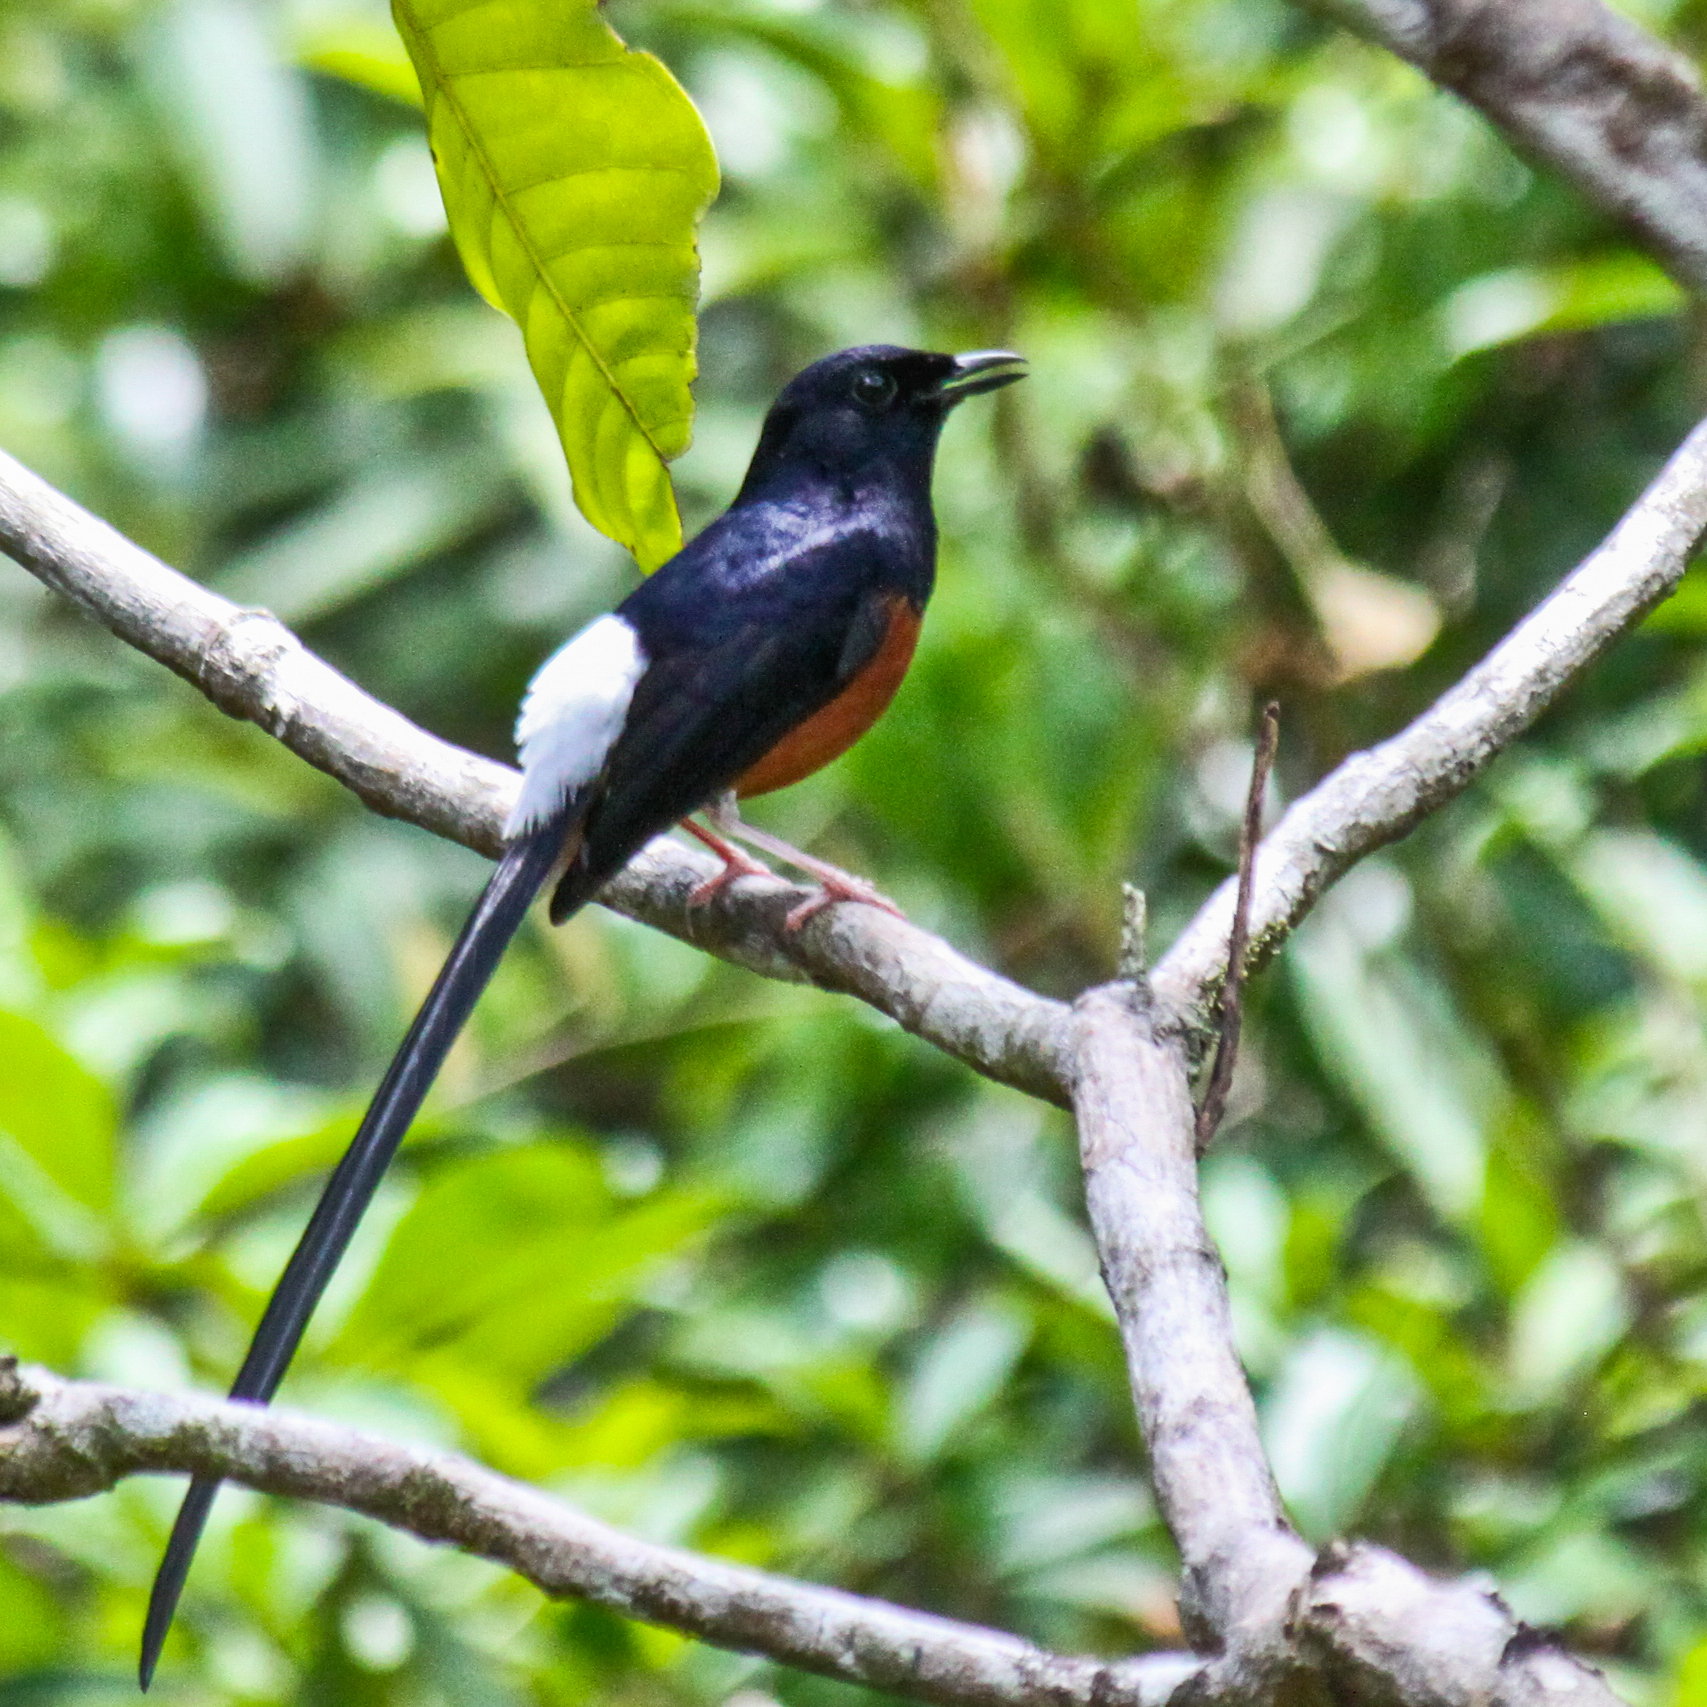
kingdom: Animalia
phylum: Chordata
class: Aves
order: Passeriformes
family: Muscicapidae
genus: Copsychus
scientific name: Copsychus malabaricus
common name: White-rumped shama
